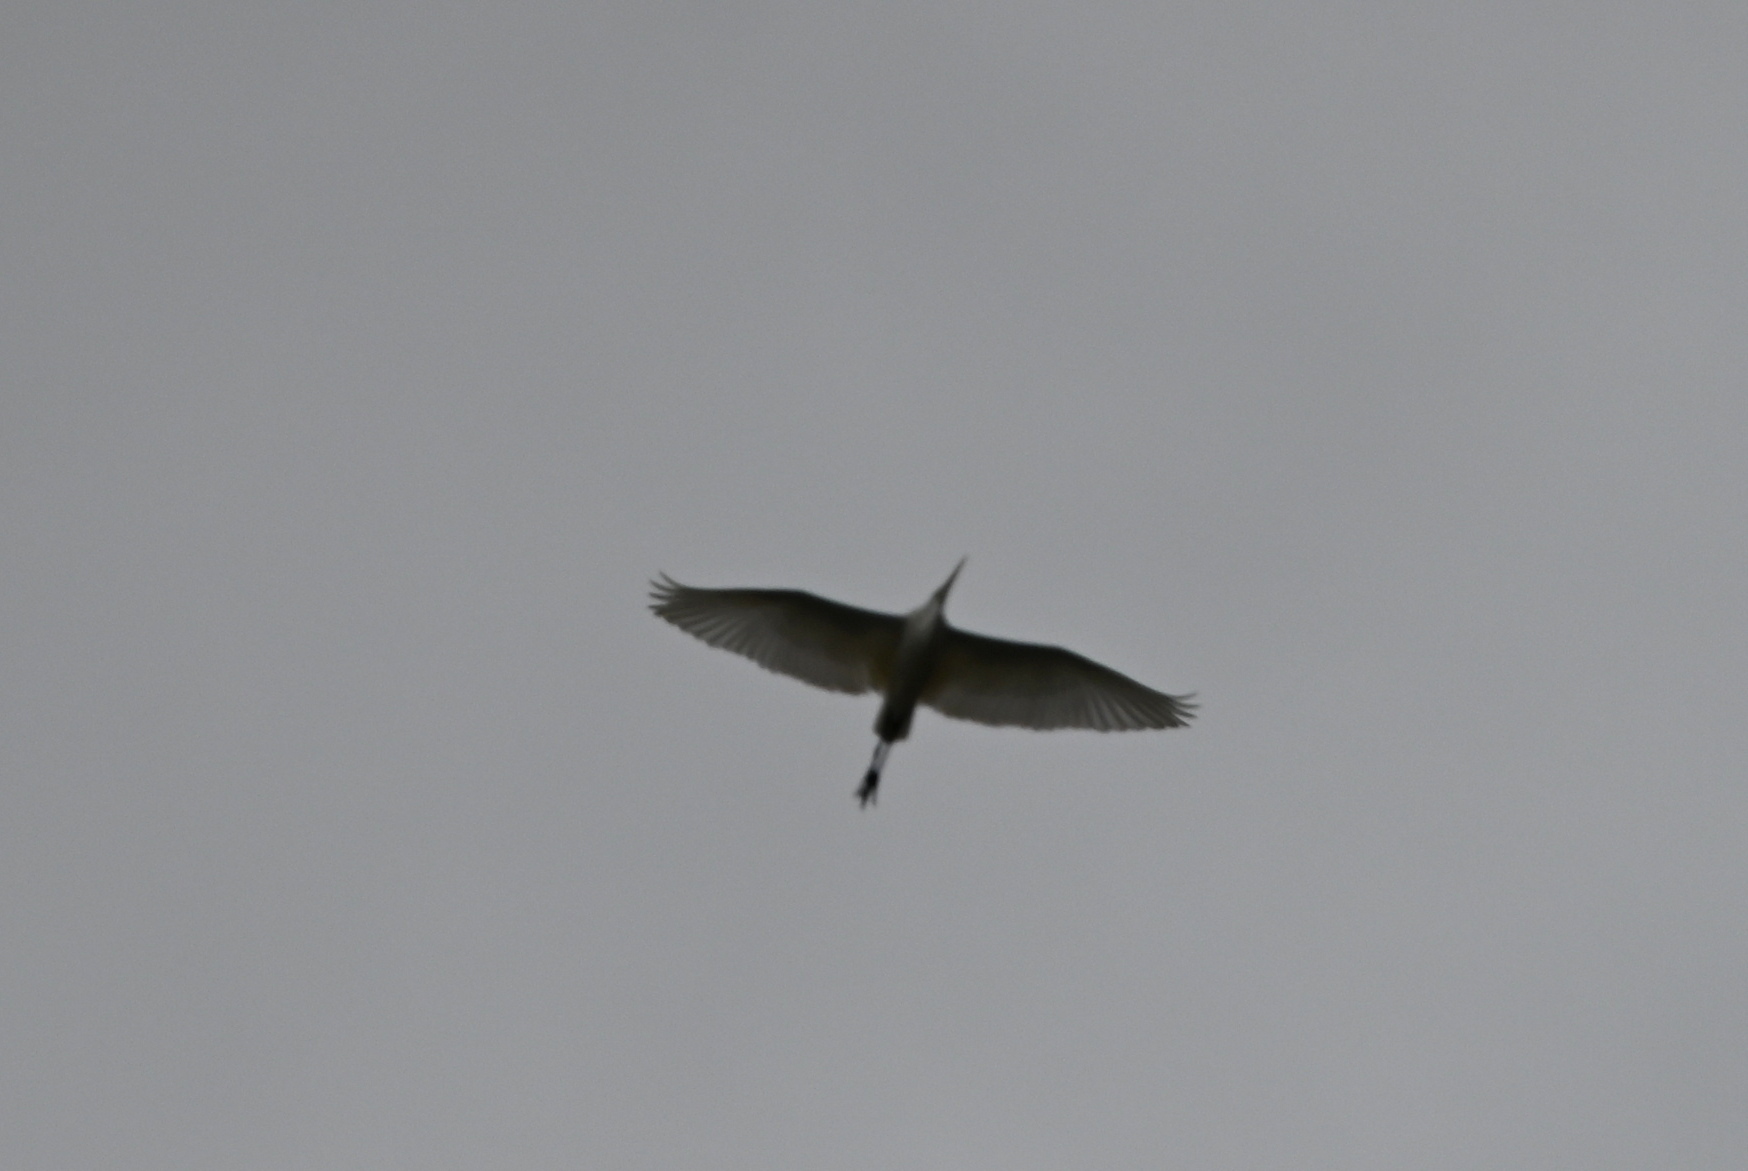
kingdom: Animalia
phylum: Chordata
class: Aves
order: Pelecaniformes
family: Ardeidae
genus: Ardea
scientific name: Ardea alba
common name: Great egret
